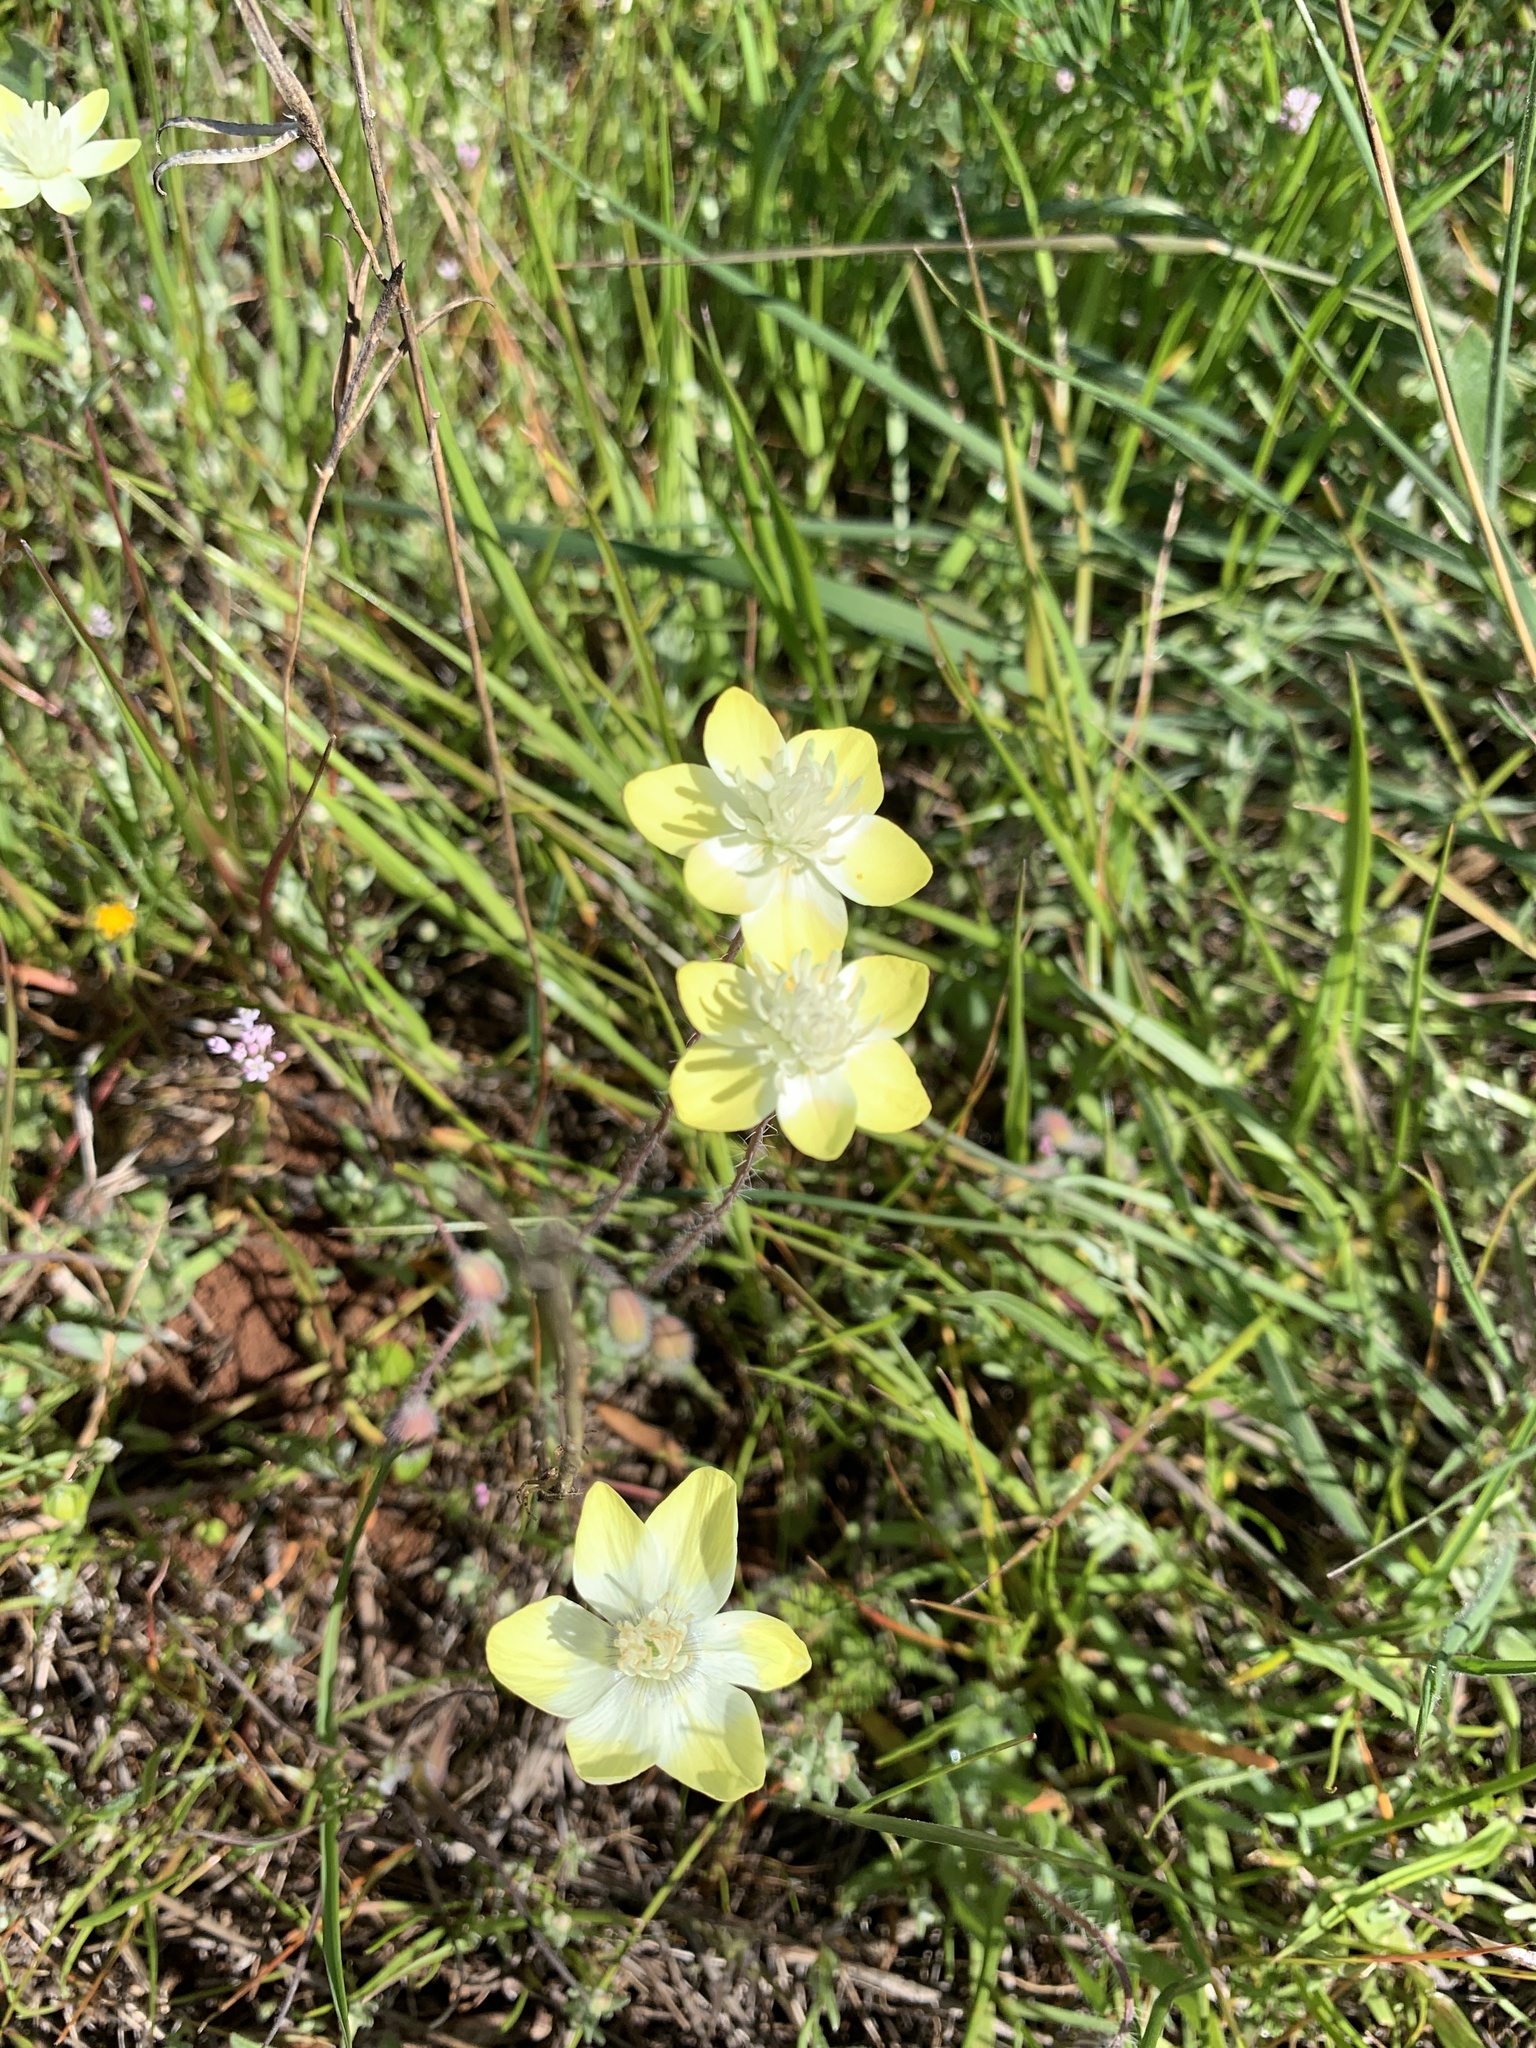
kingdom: Plantae
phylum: Tracheophyta
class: Magnoliopsida
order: Ranunculales
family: Papaveraceae
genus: Platystemon
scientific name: Platystemon californicus
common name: Cream-cups
